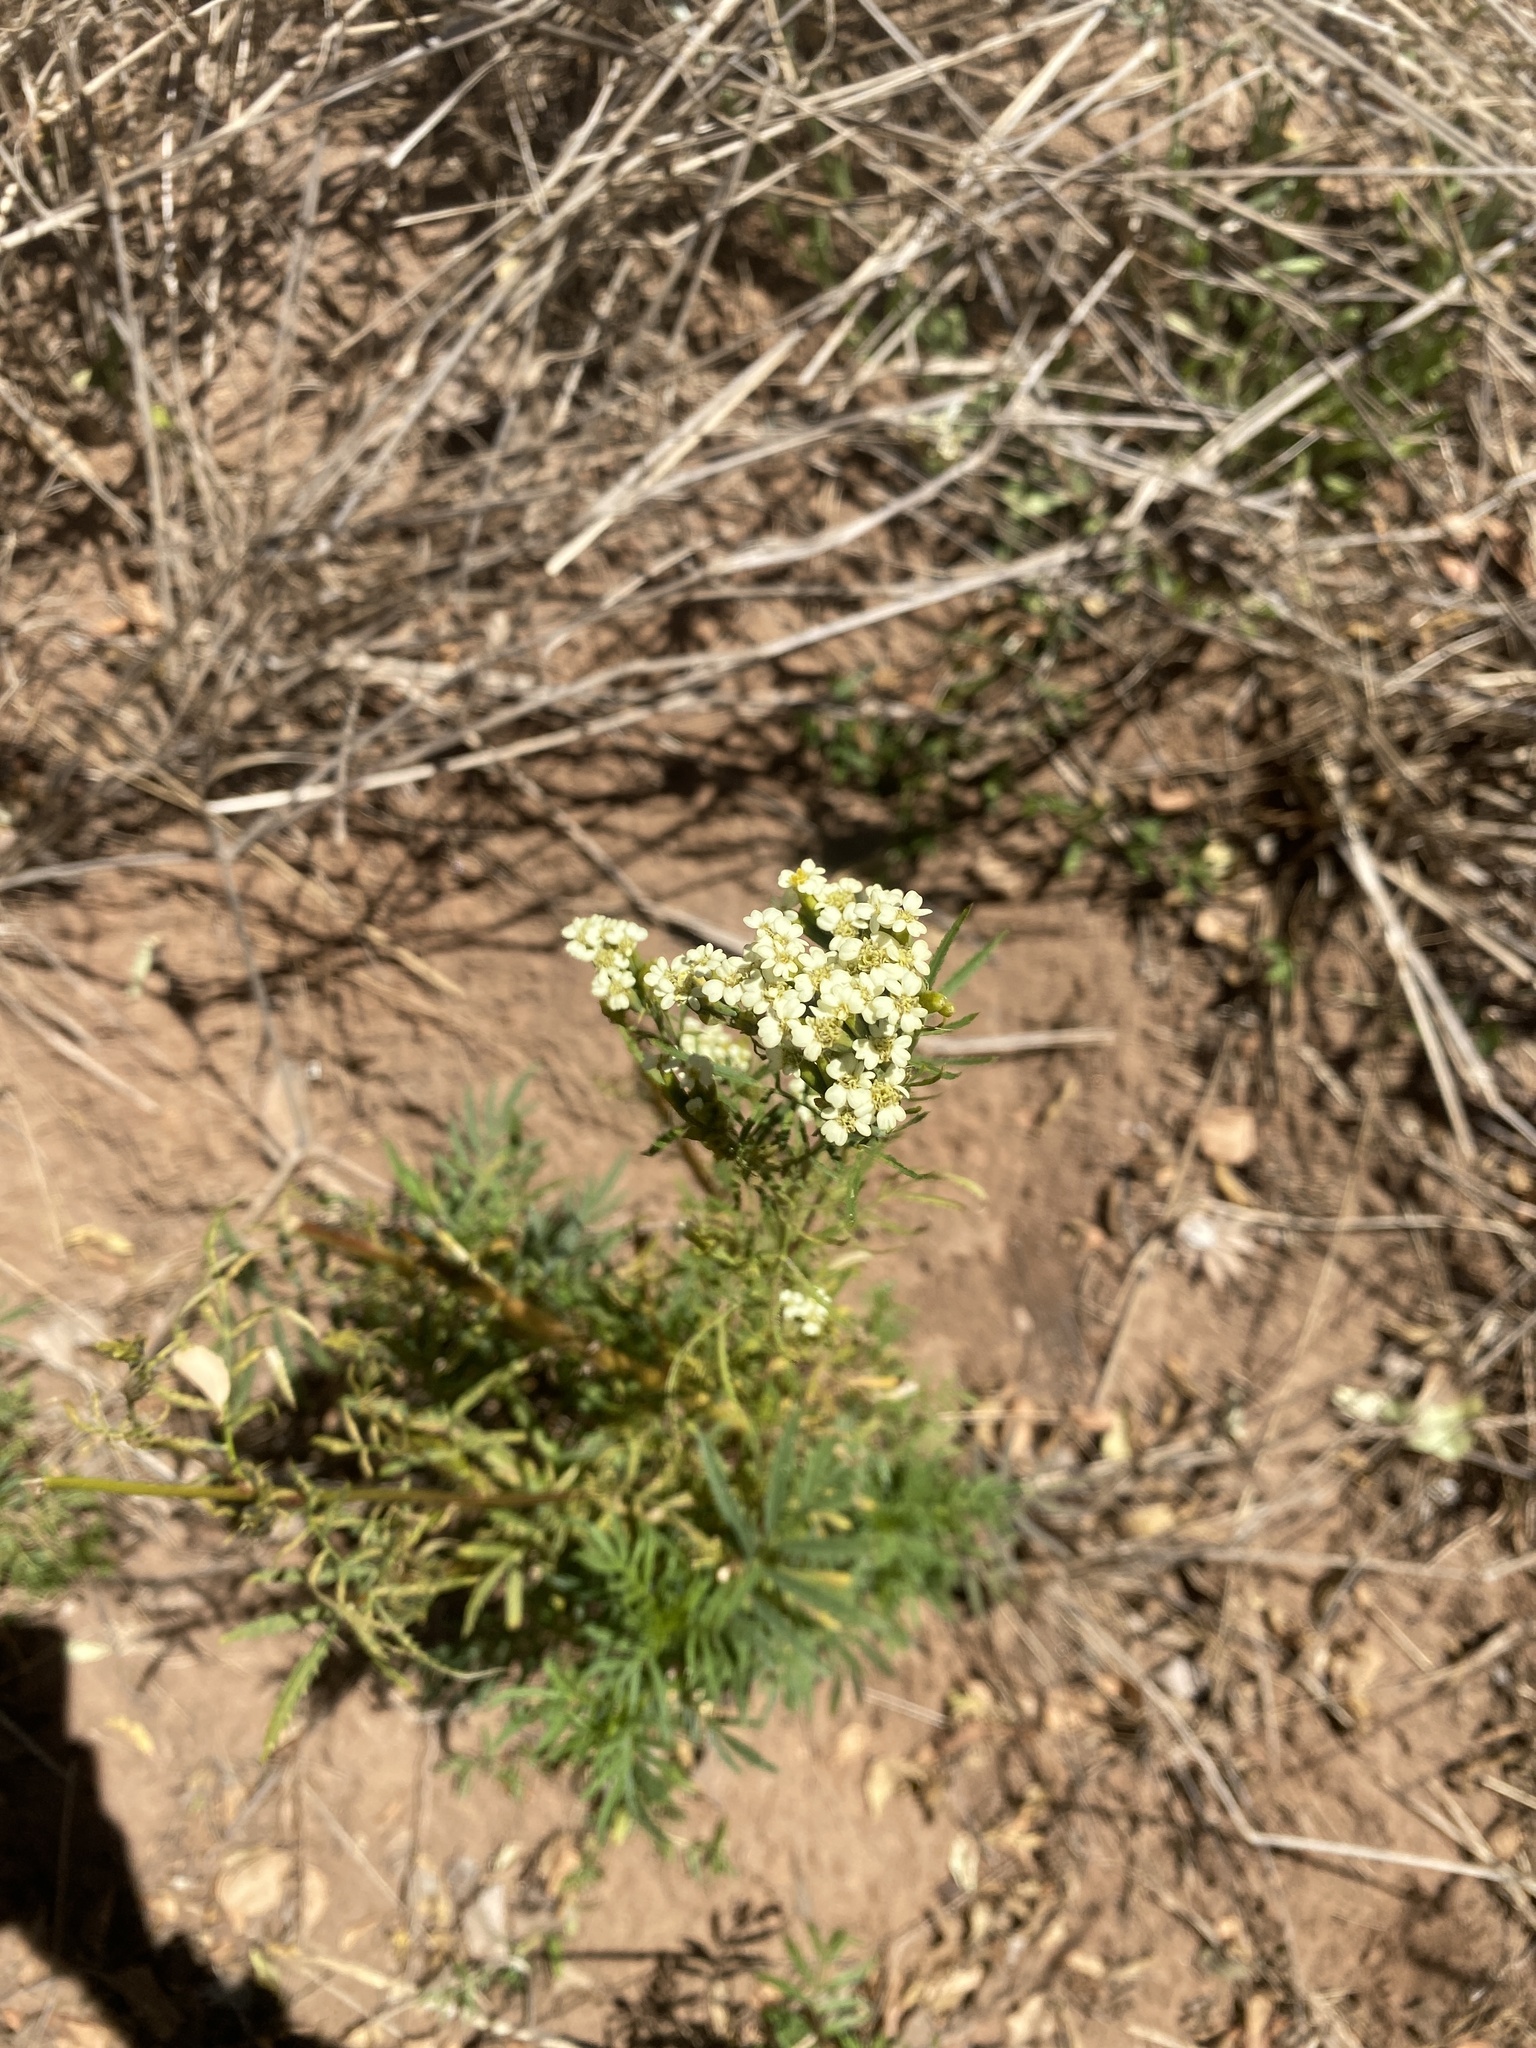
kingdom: Plantae
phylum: Tracheophyta
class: Magnoliopsida
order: Asterales
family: Asteraceae
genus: Tagetes
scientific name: Tagetes minuta
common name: Muster john henry
